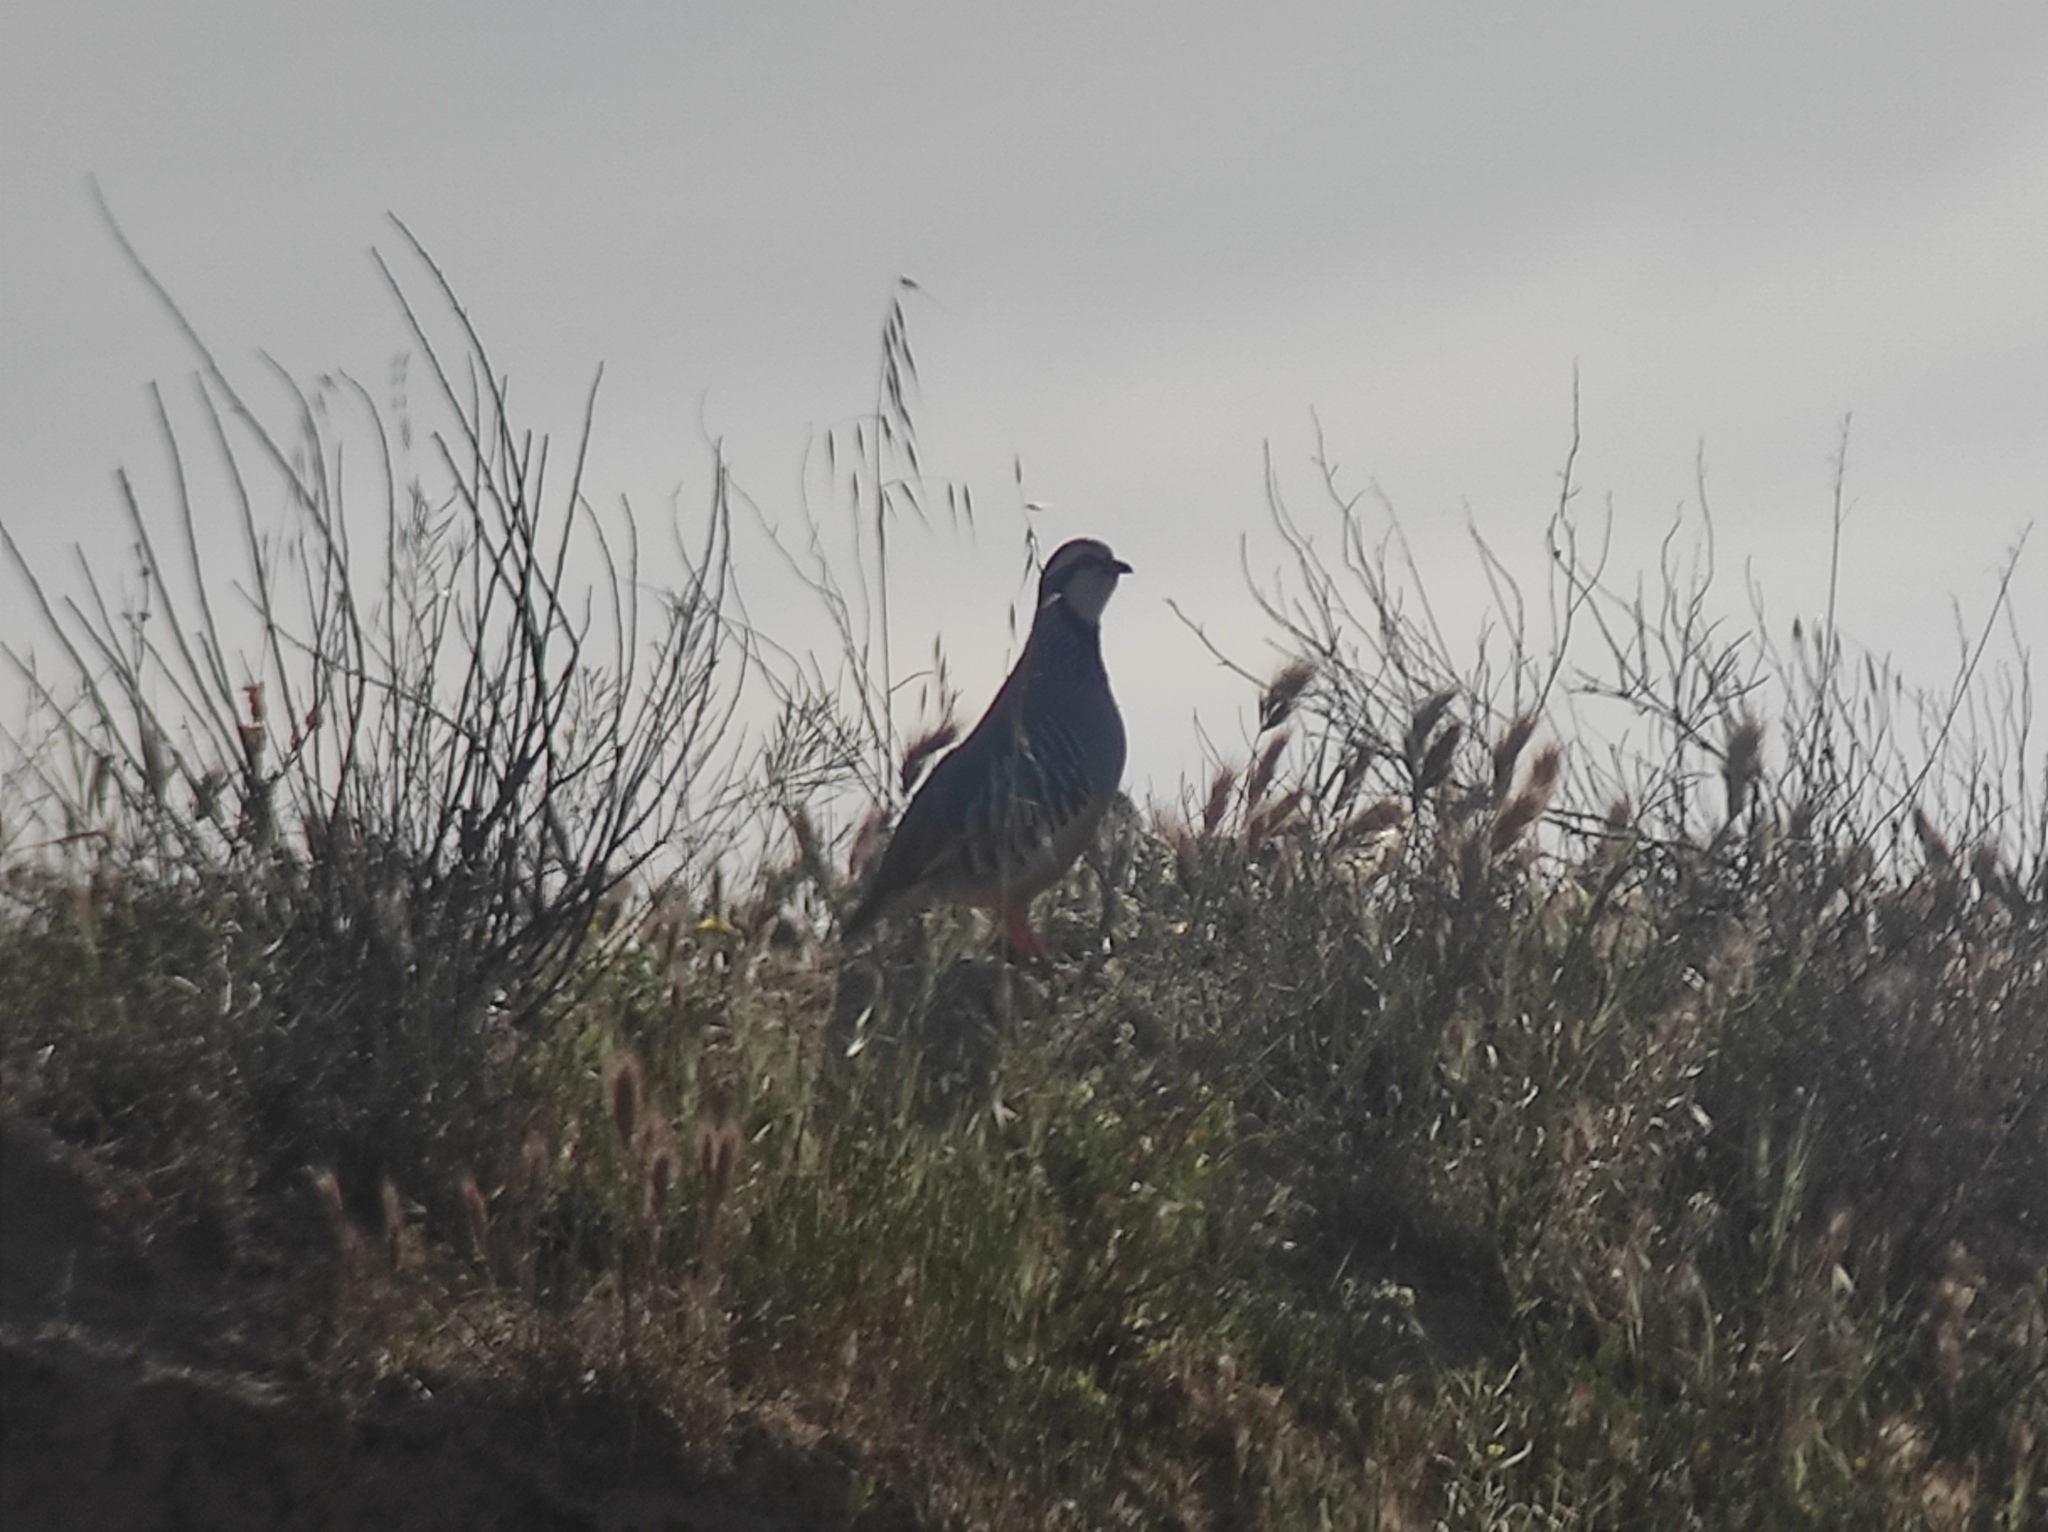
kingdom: Animalia
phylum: Chordata
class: Aves
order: Galliformes
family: Phasianidae
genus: Alectoris
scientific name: Alectoris rufa
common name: Red-legged partridge
